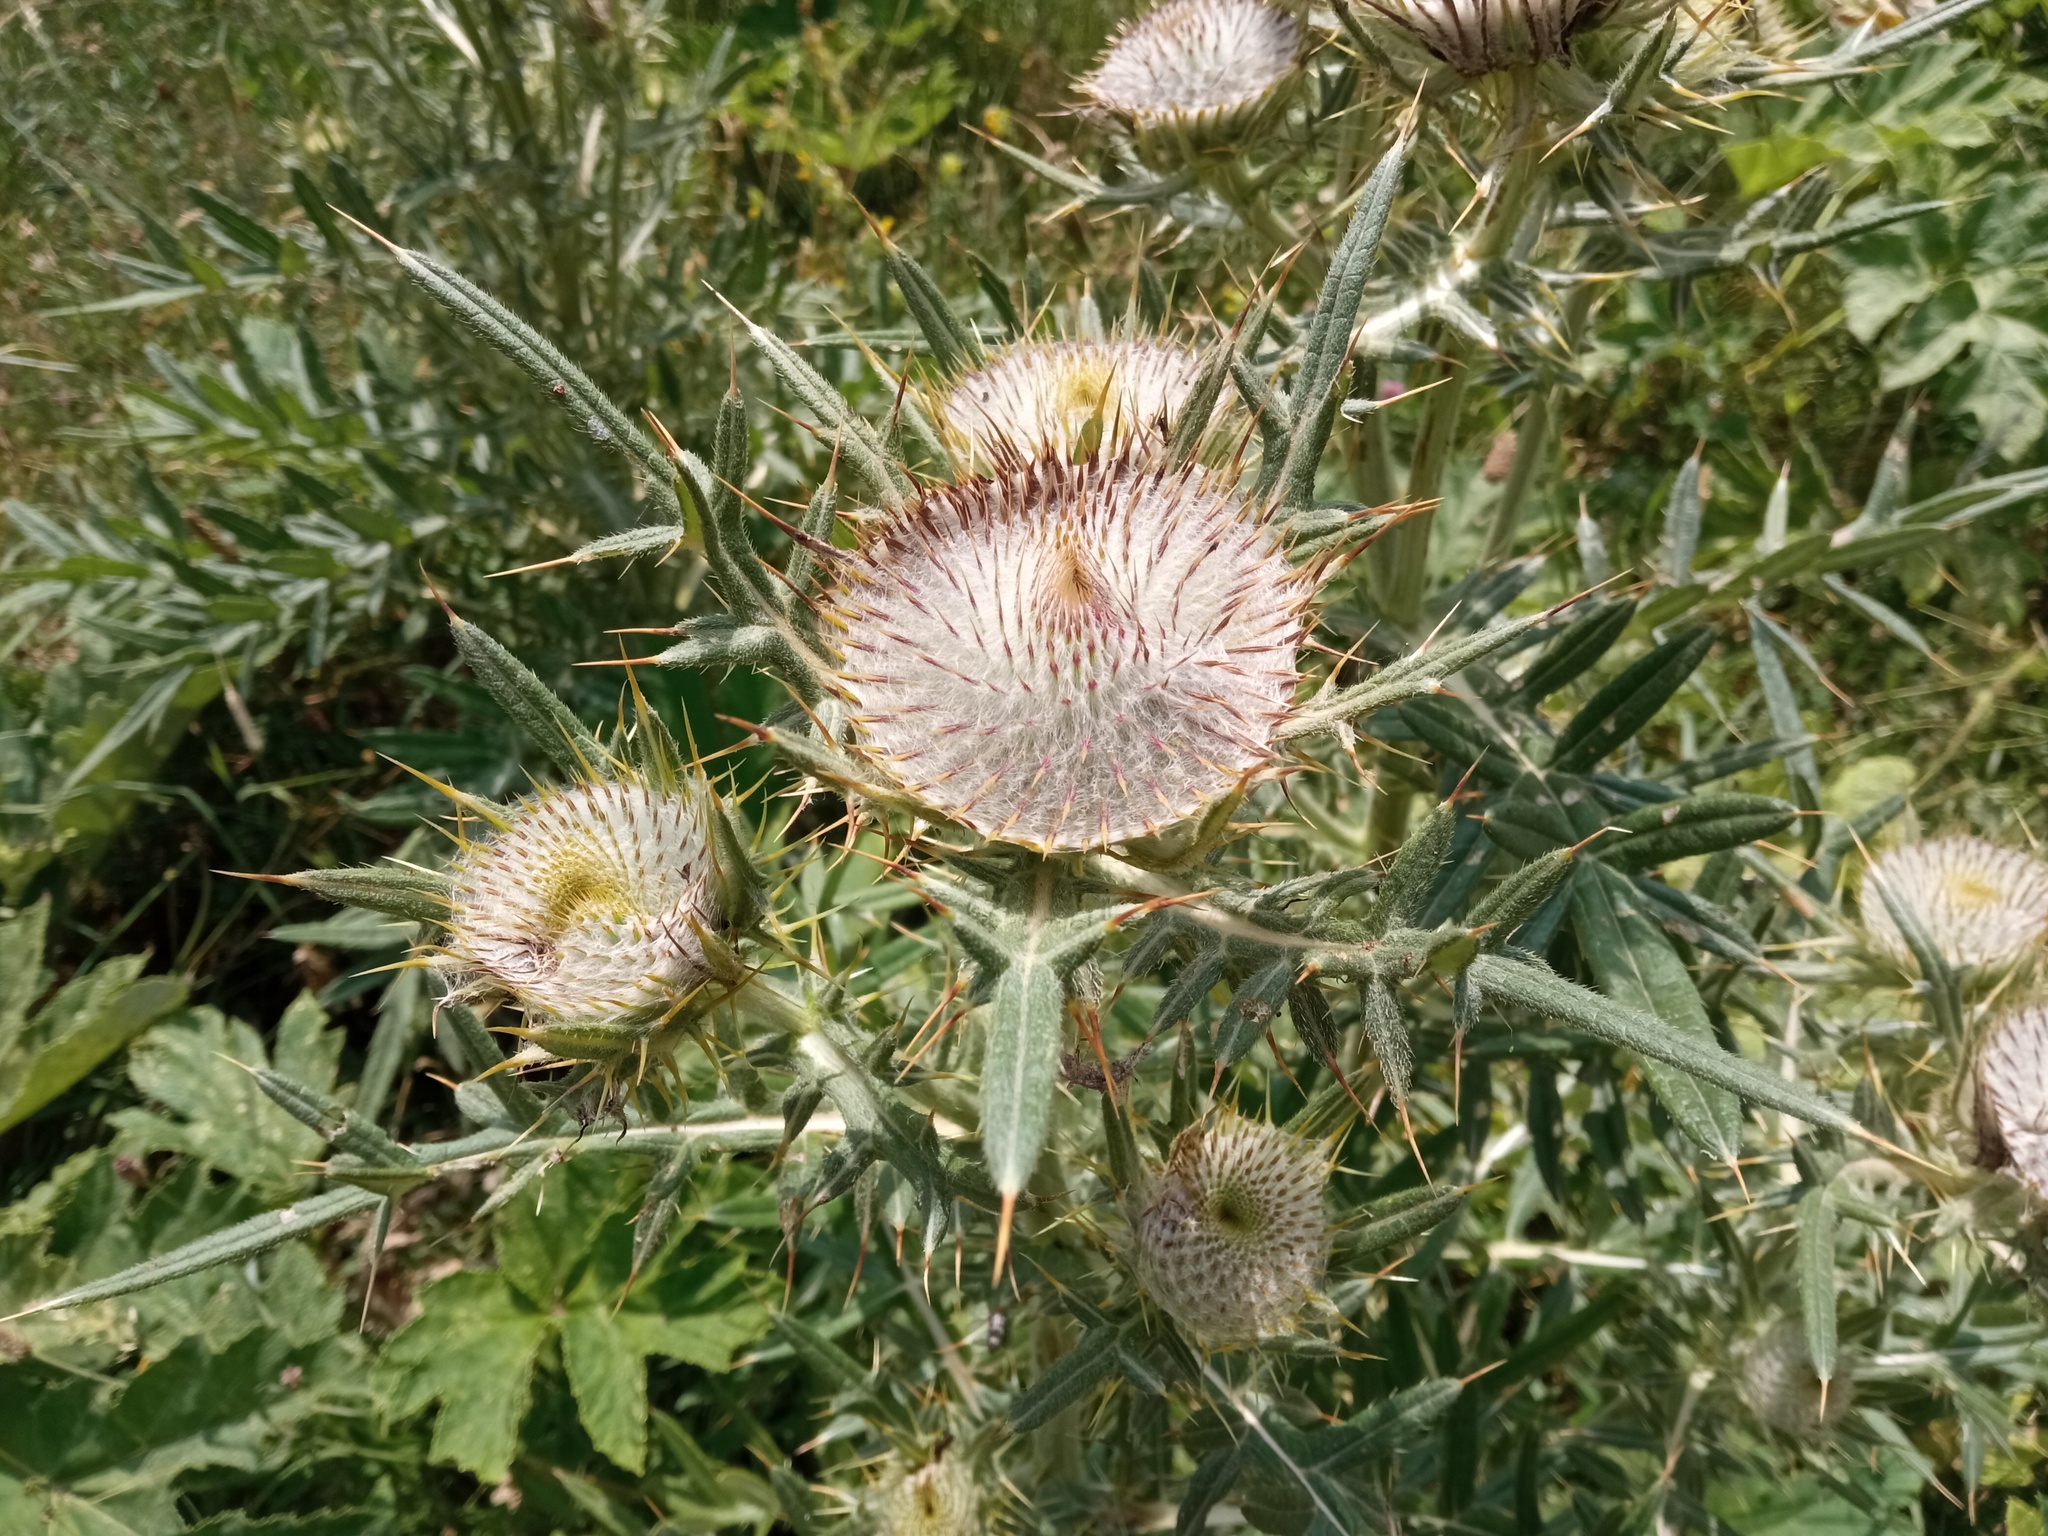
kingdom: Plantae
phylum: Tracheophyta
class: Magnoliopsida
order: Asterales
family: Asteraceae
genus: Lophiolepis
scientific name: Lophiolepis eriophora
